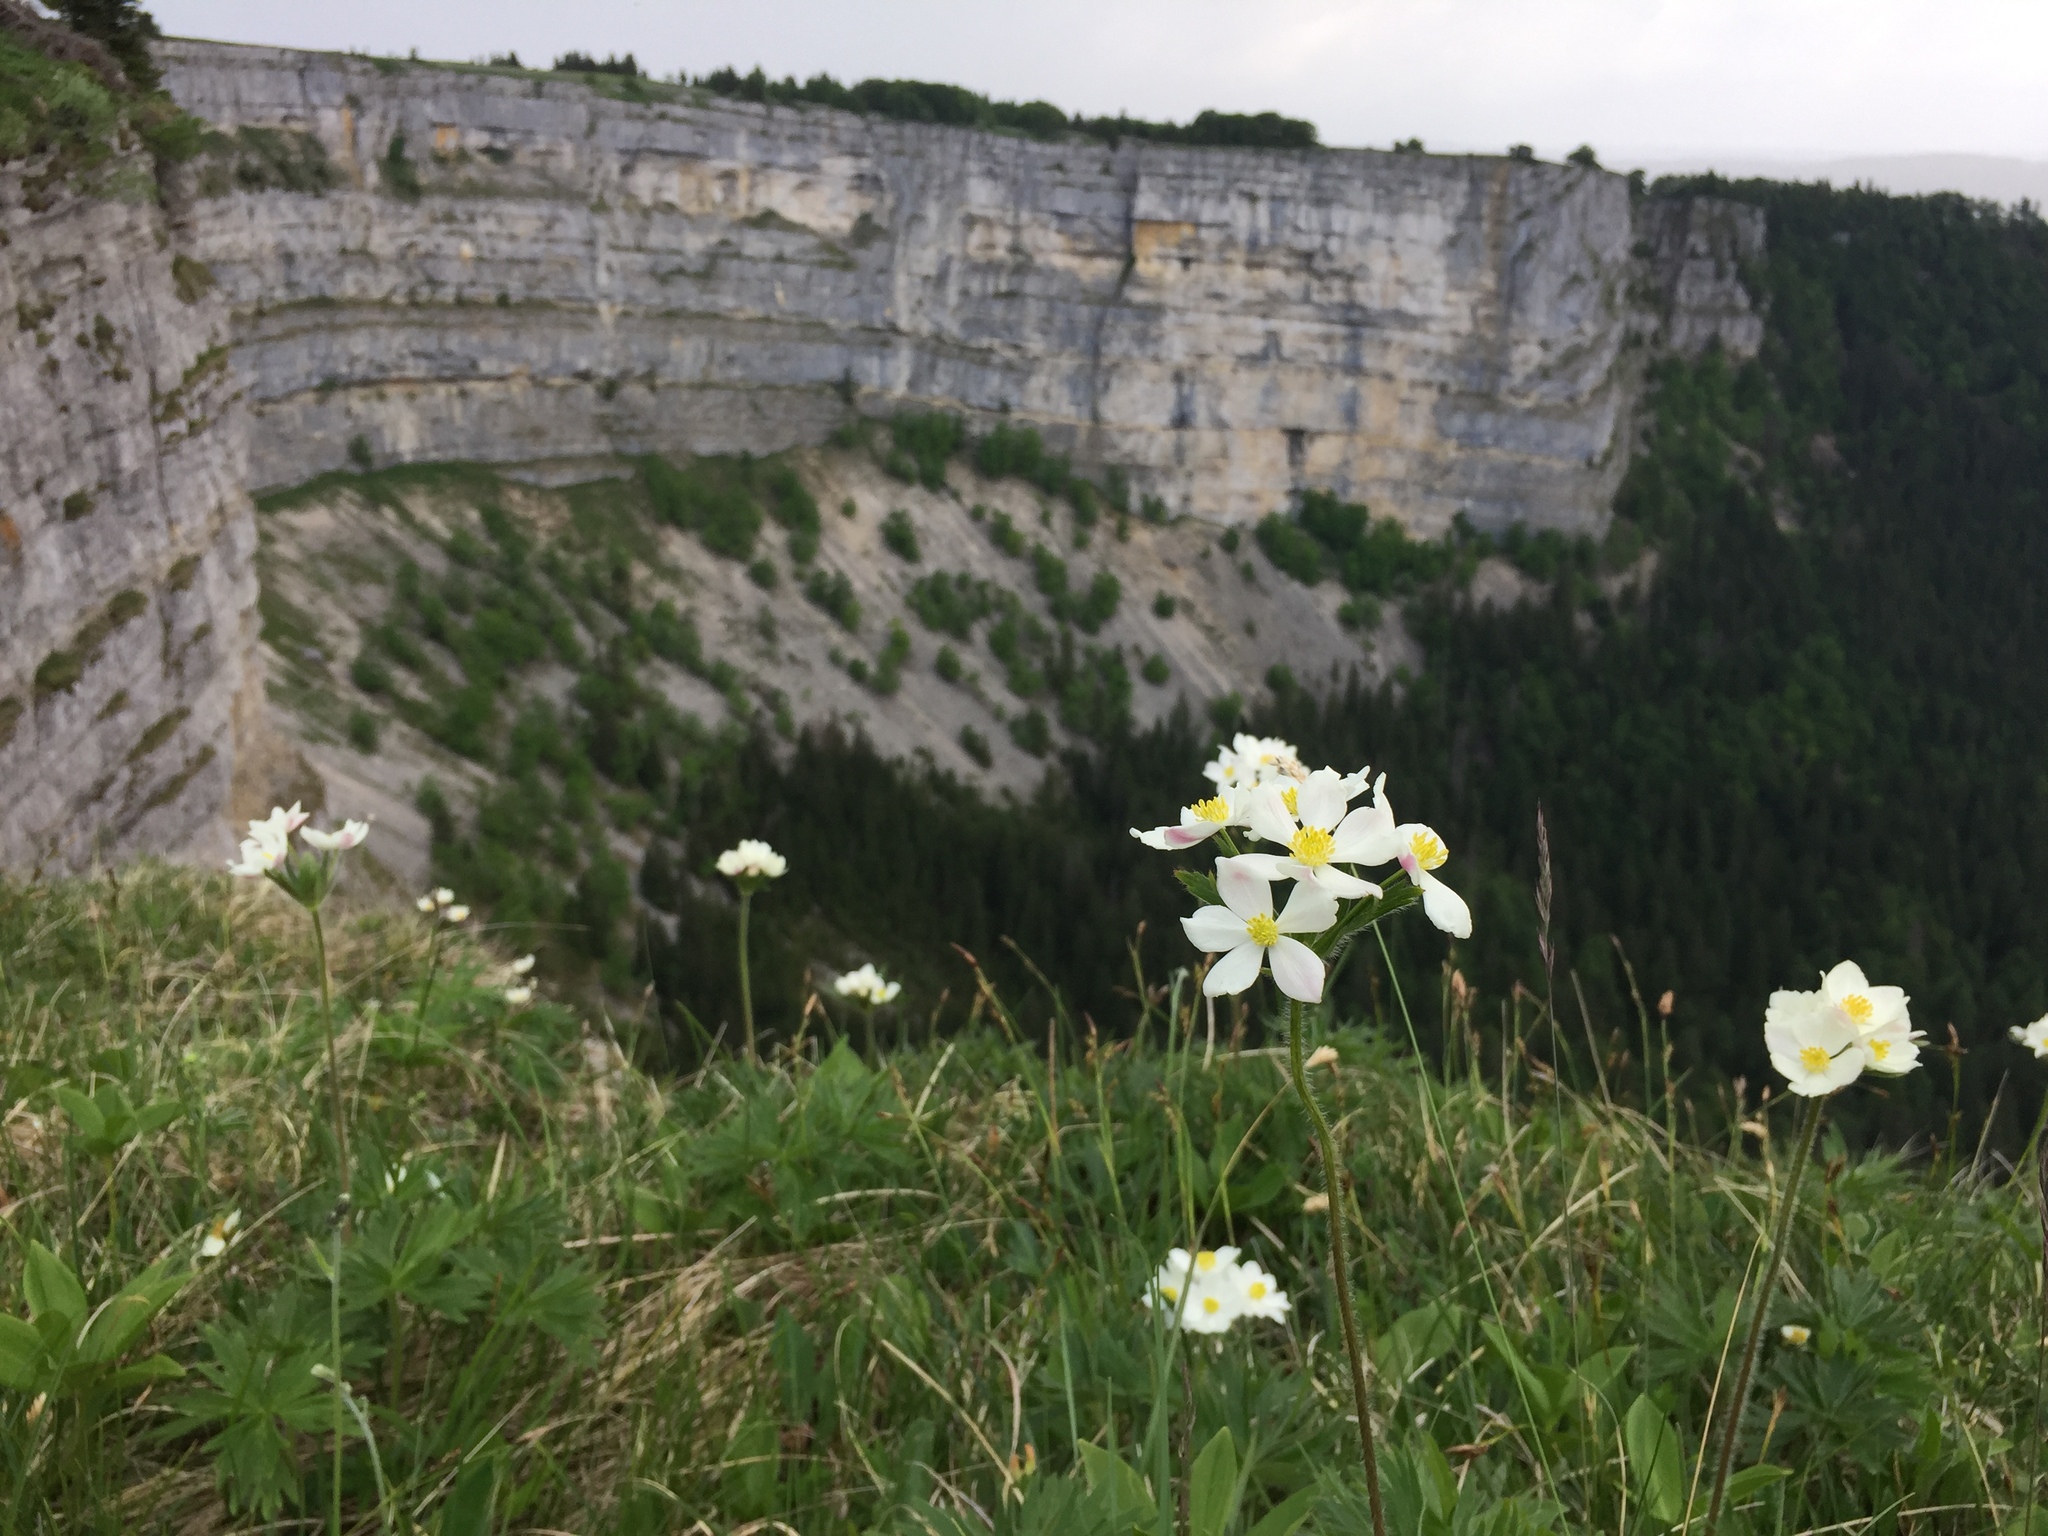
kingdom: Plantae
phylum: Tracheophyta
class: Magnoliopsida
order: Ranunculales
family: Ranunculaceae
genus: Anemonastrum
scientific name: Anemonastrum narcissiflorum
